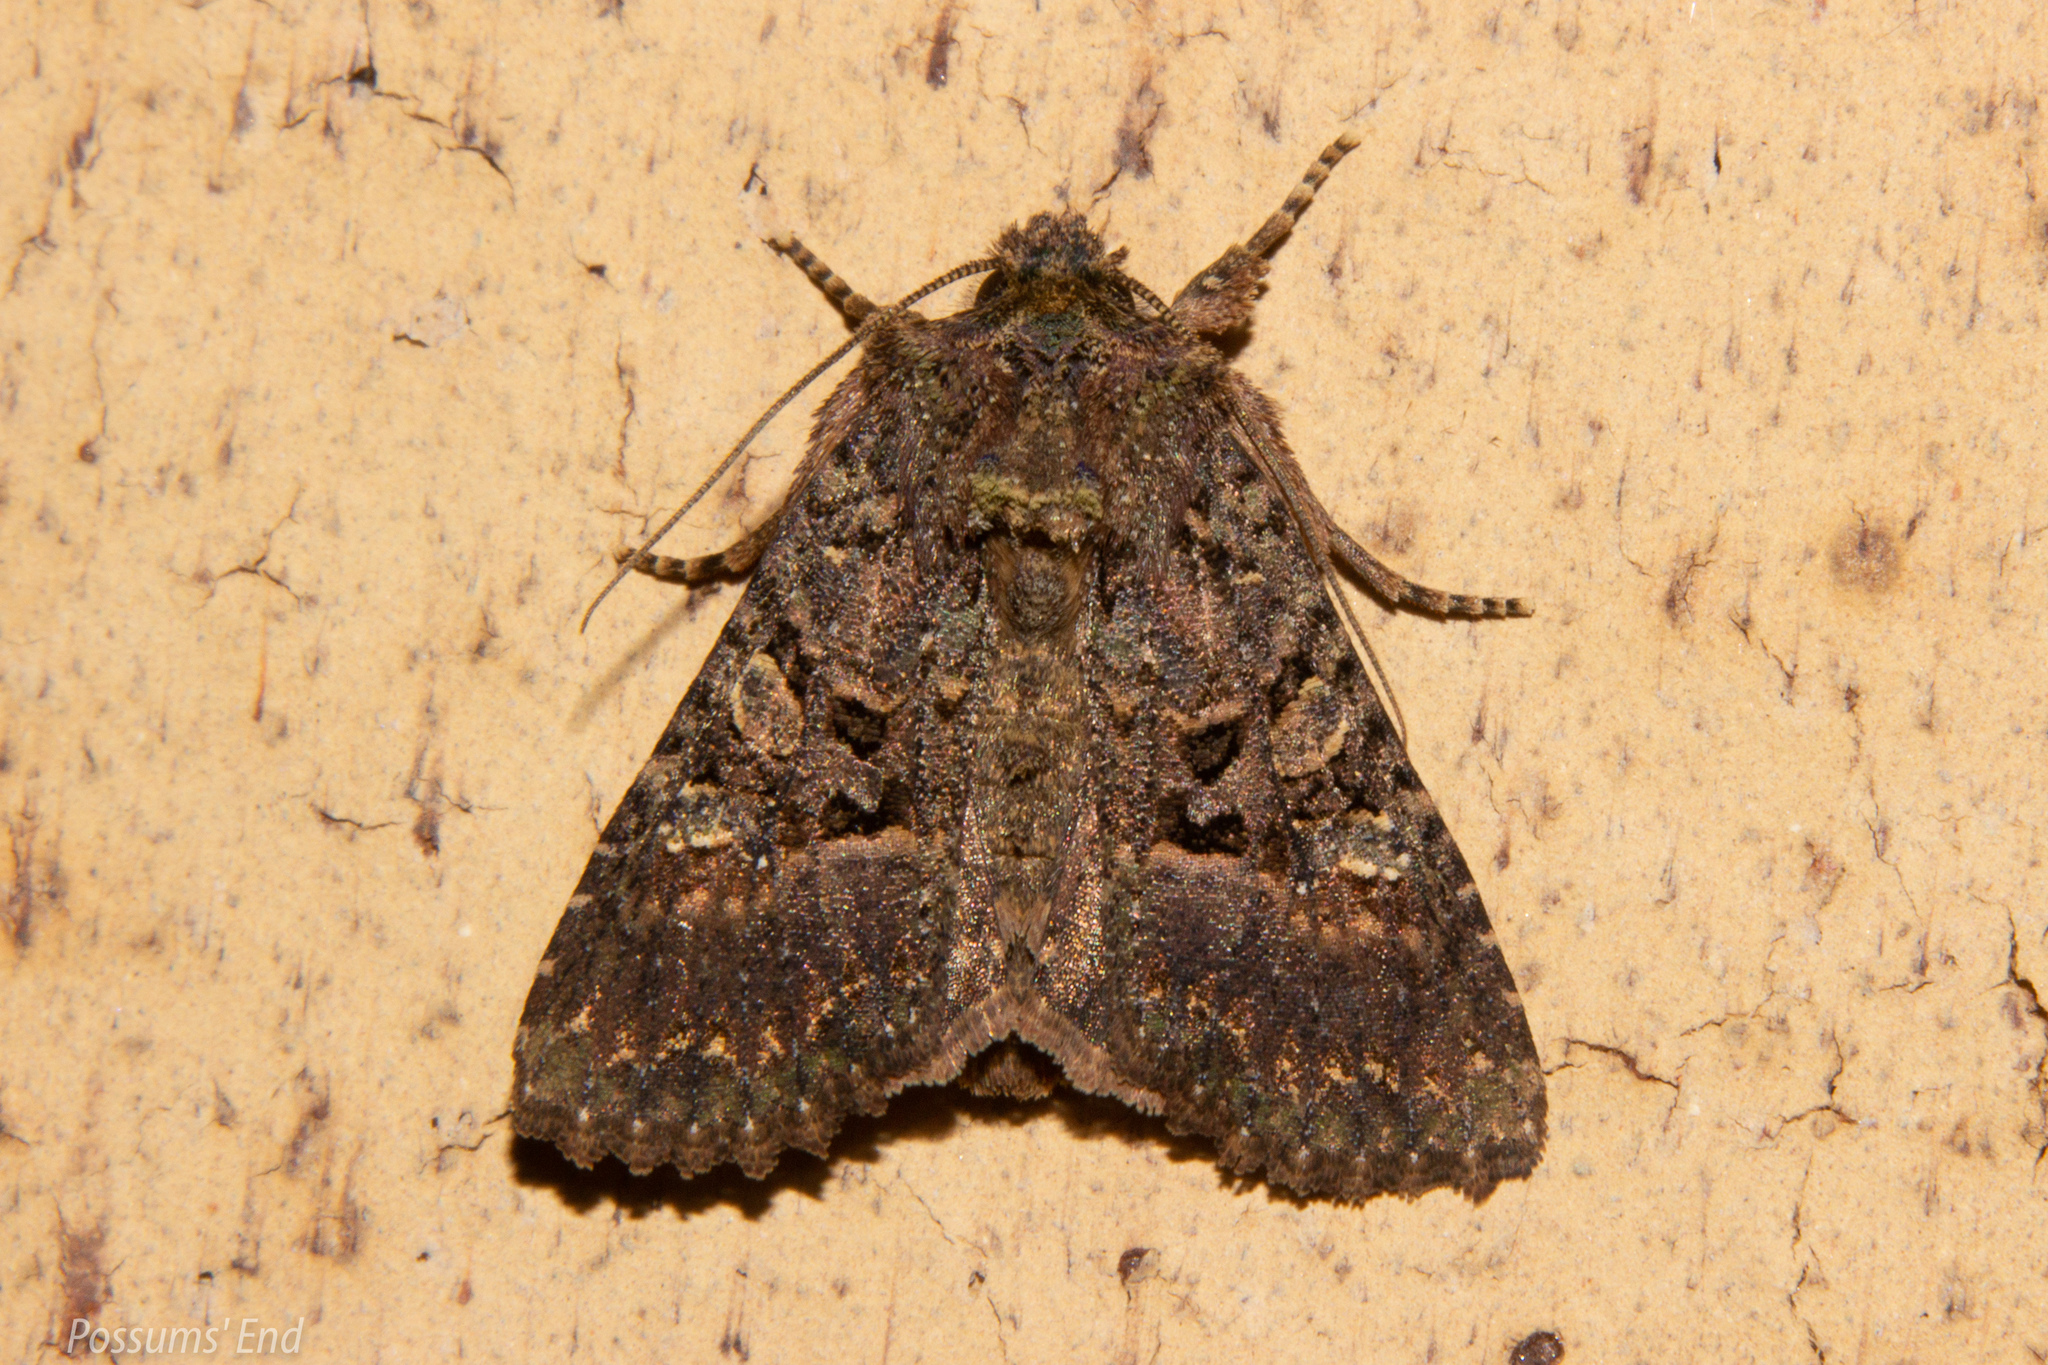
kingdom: Animalia
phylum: Arthropoda
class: Insecta
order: Lepidoptera
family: Noctuidae
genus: Meterana
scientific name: Meterana ochthistis
